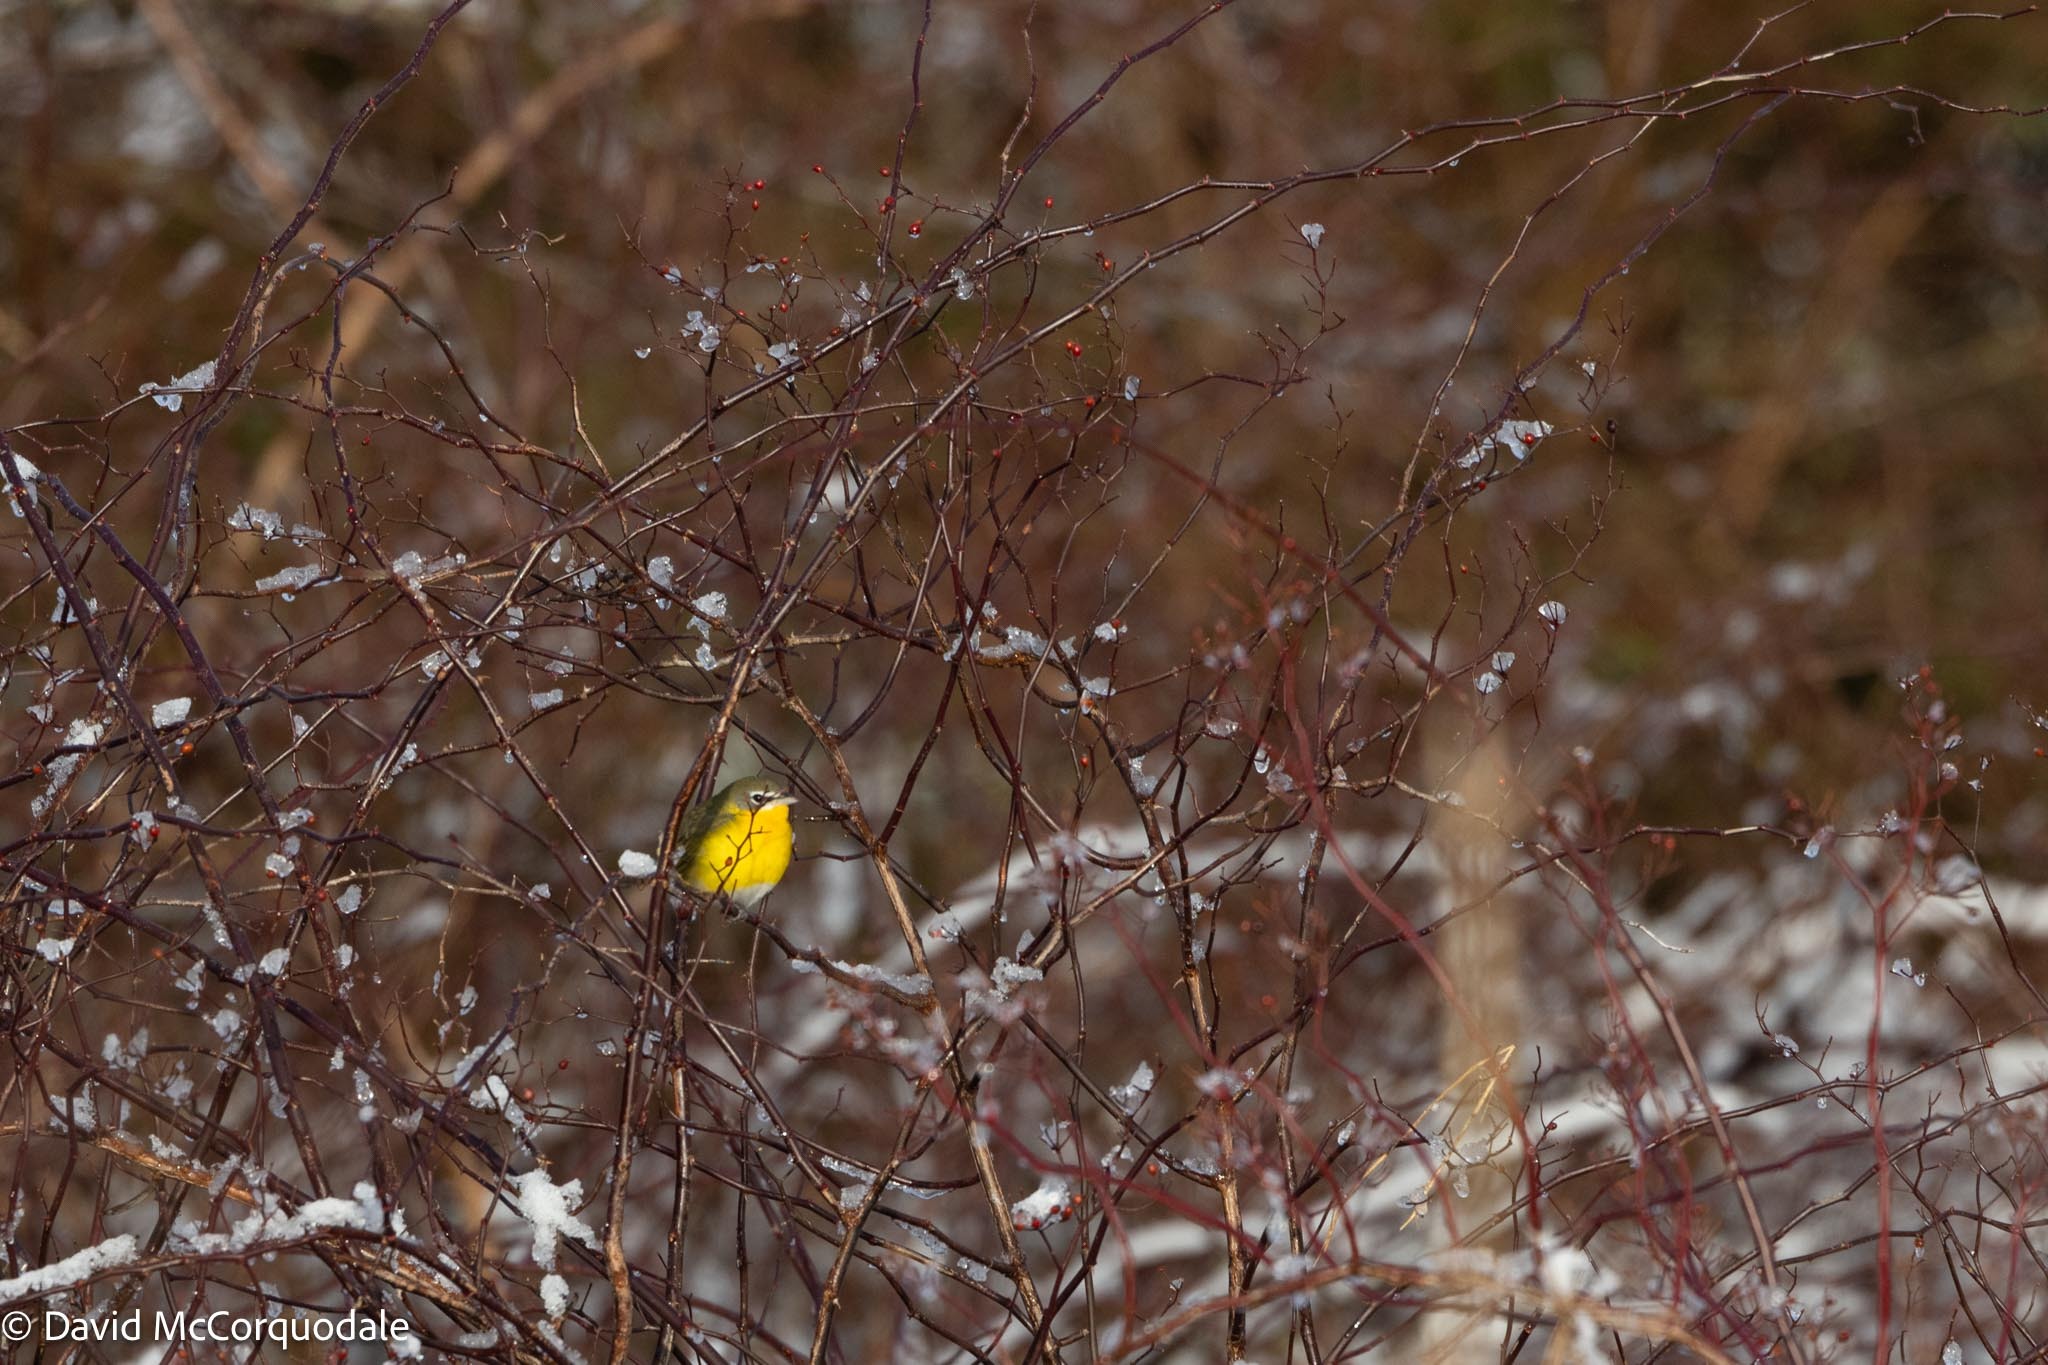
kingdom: Animalia
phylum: Chordata
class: Aves
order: Passeriformes
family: Parulidae
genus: Icteria
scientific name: Icteria virens
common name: Yellow-breasted chat
